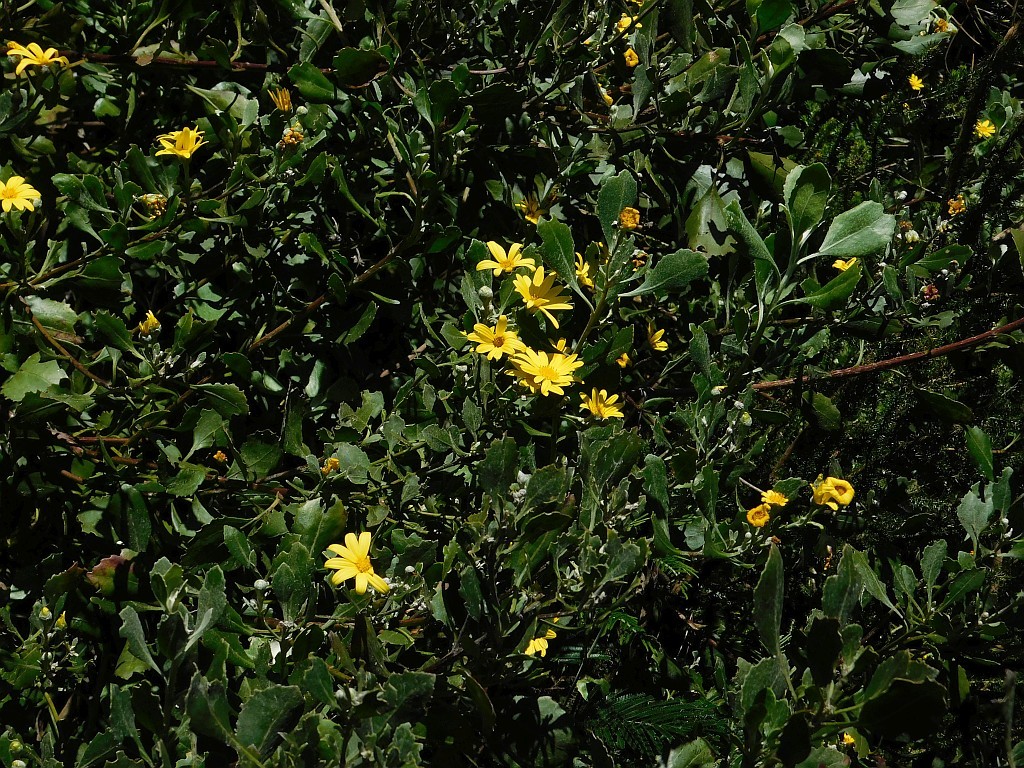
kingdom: Plantae
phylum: Tracheophyta
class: Magnoliopsida
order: Asterales
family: Asteraceae
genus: Osteospermum
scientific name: Osteospermum moniliferum
